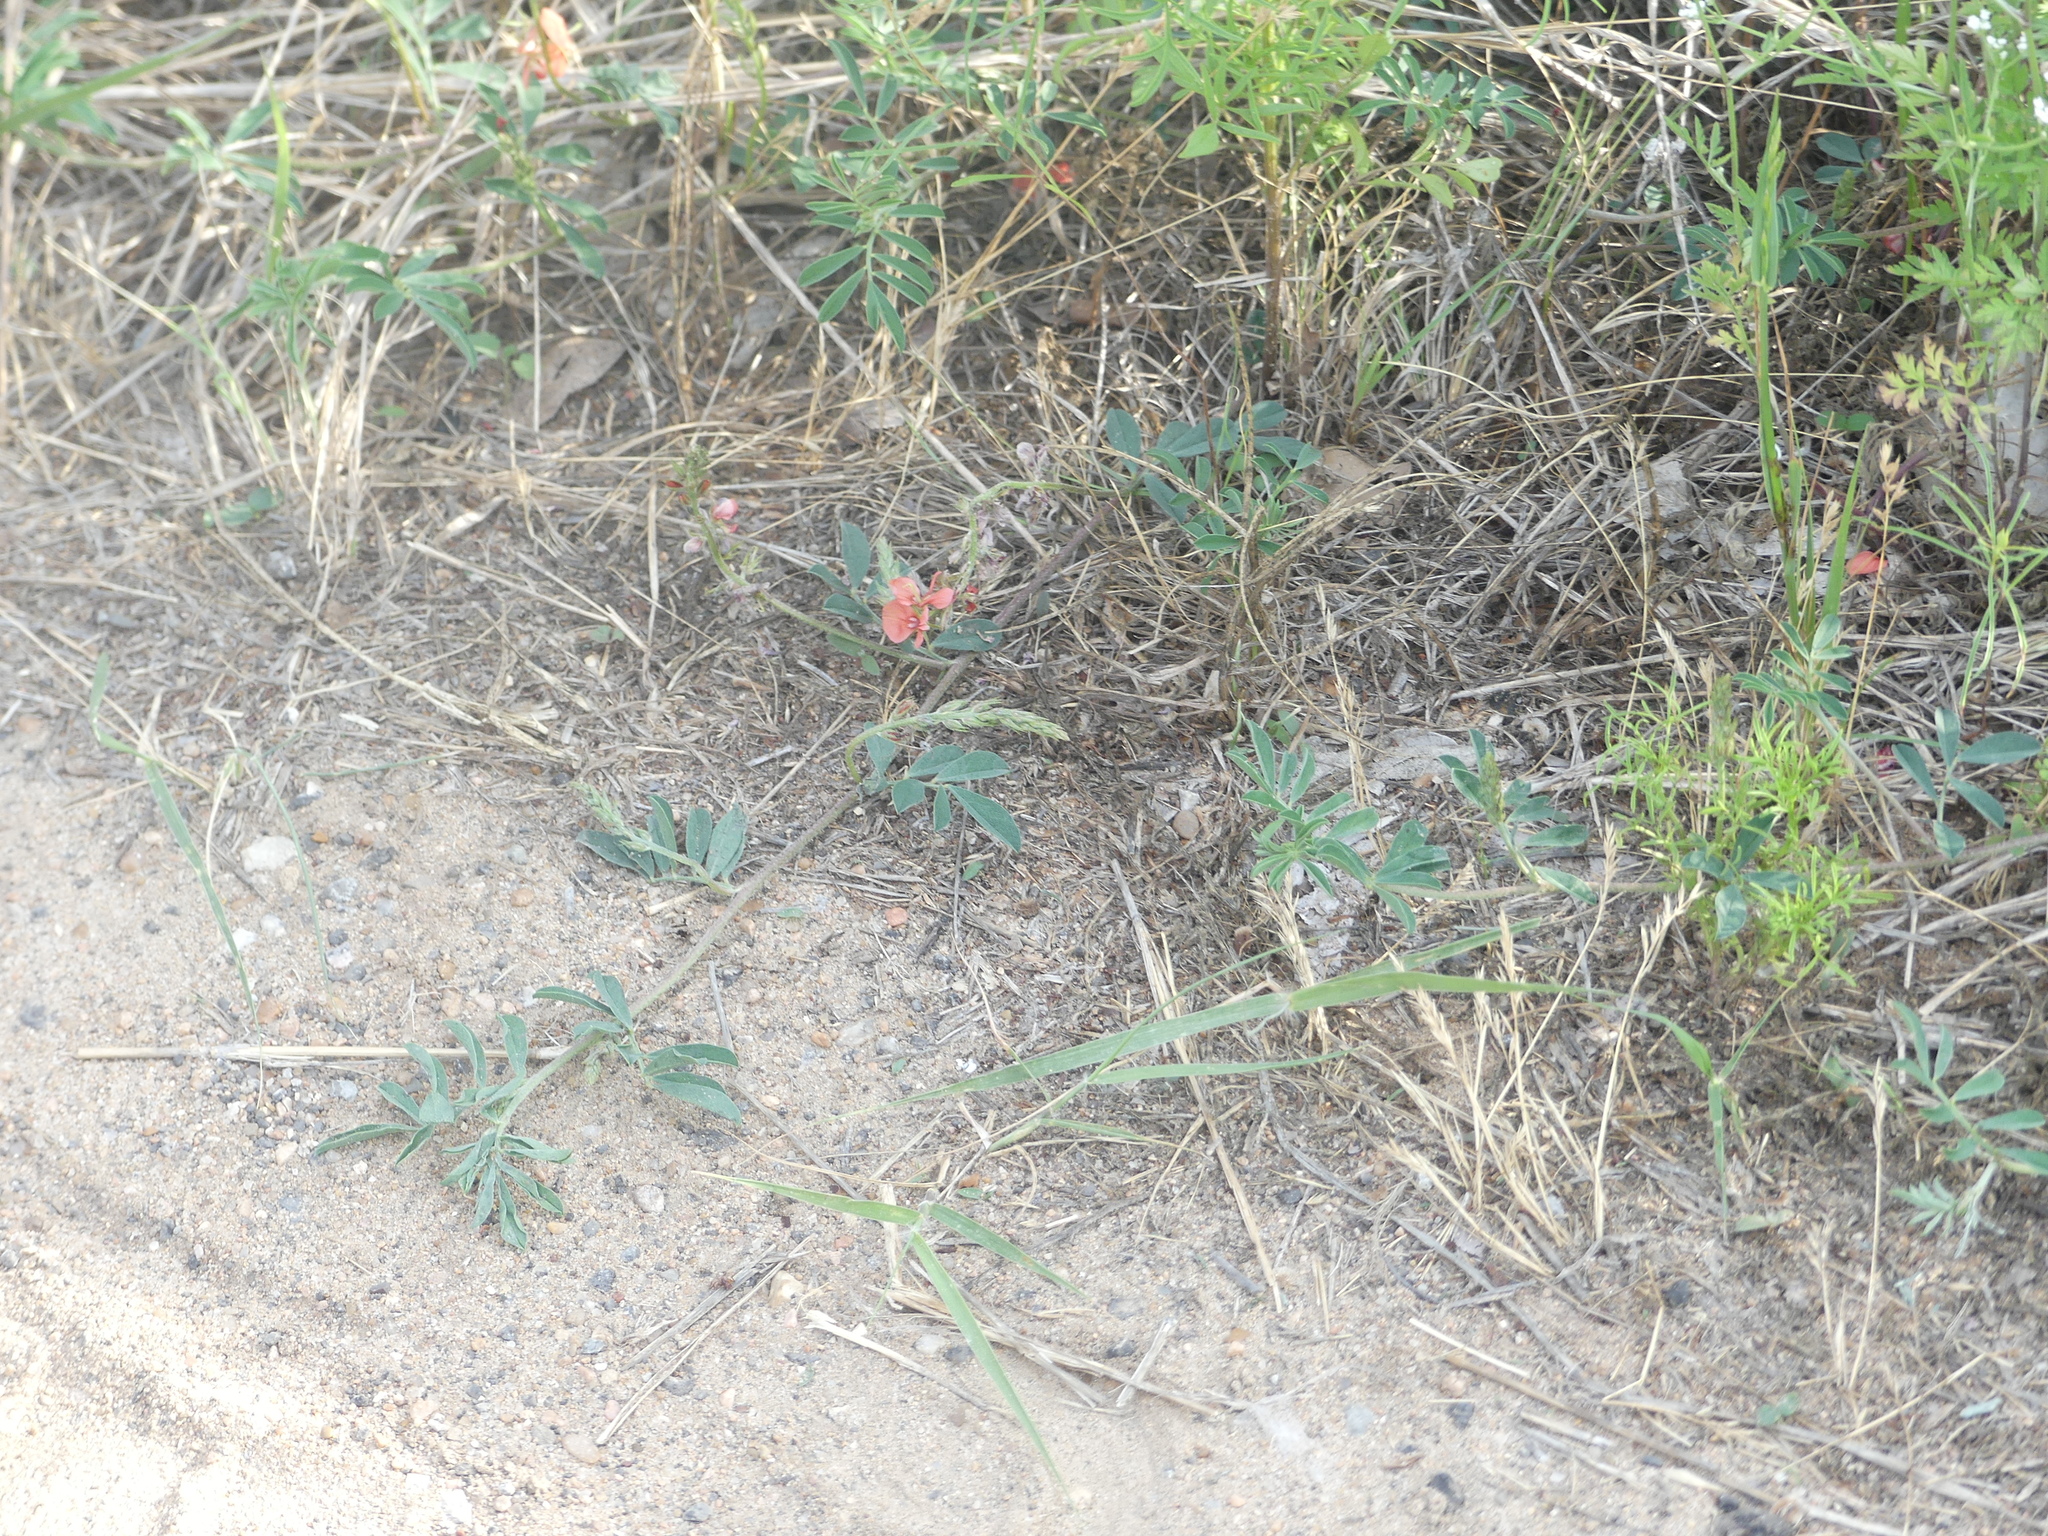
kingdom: Plantae
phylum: Tracheophyta
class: Magnoliopsida
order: Fabales
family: Fabaceae
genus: Indigofera
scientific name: Indigofera miniata
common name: Coast indigo
